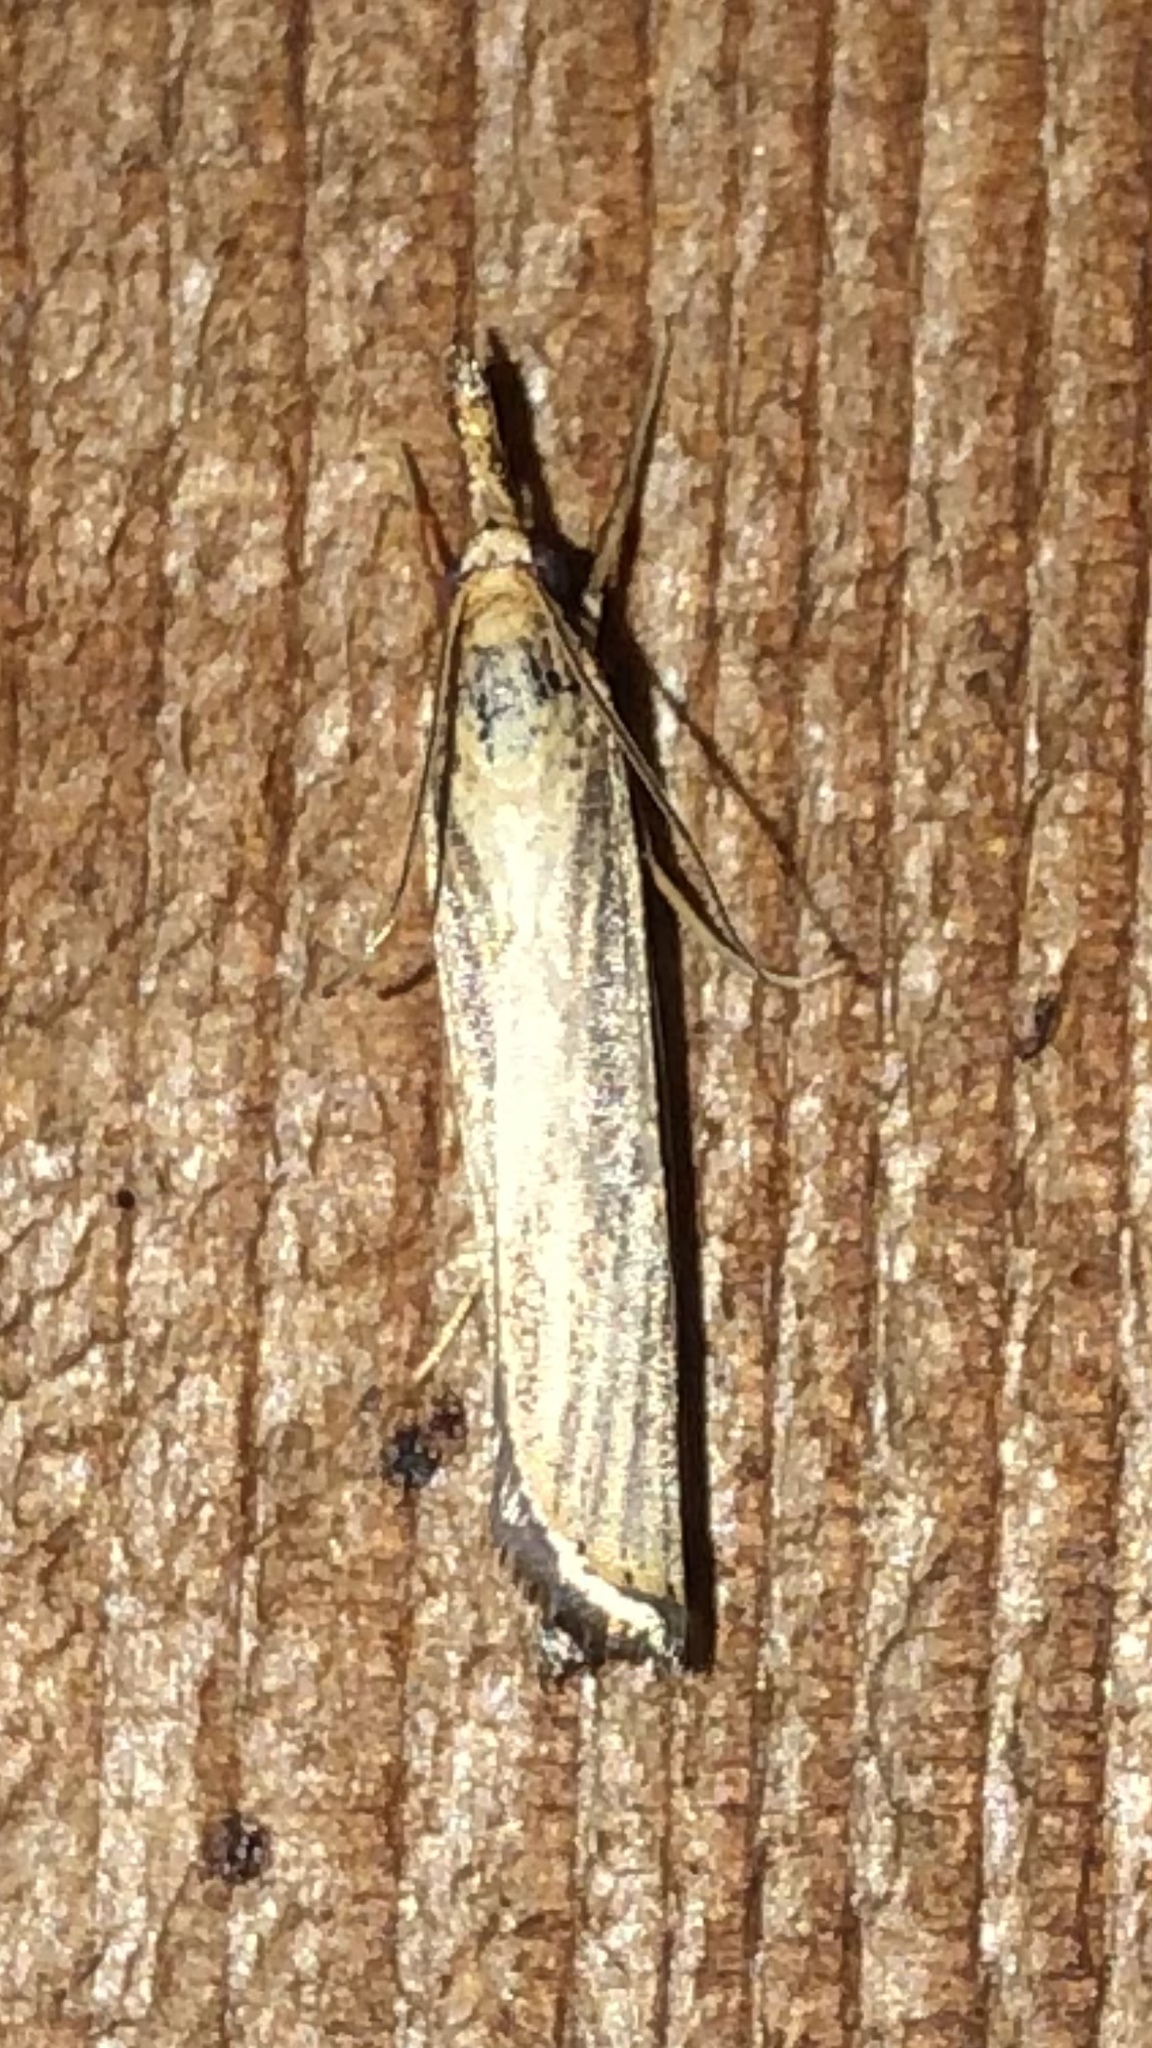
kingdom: Animalia
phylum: Arthropoda
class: Insecta
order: Lepidoptera
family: Crambidae
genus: Agriphila
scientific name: Agriphila vulgivagellus
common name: Vagabond crambus moth
